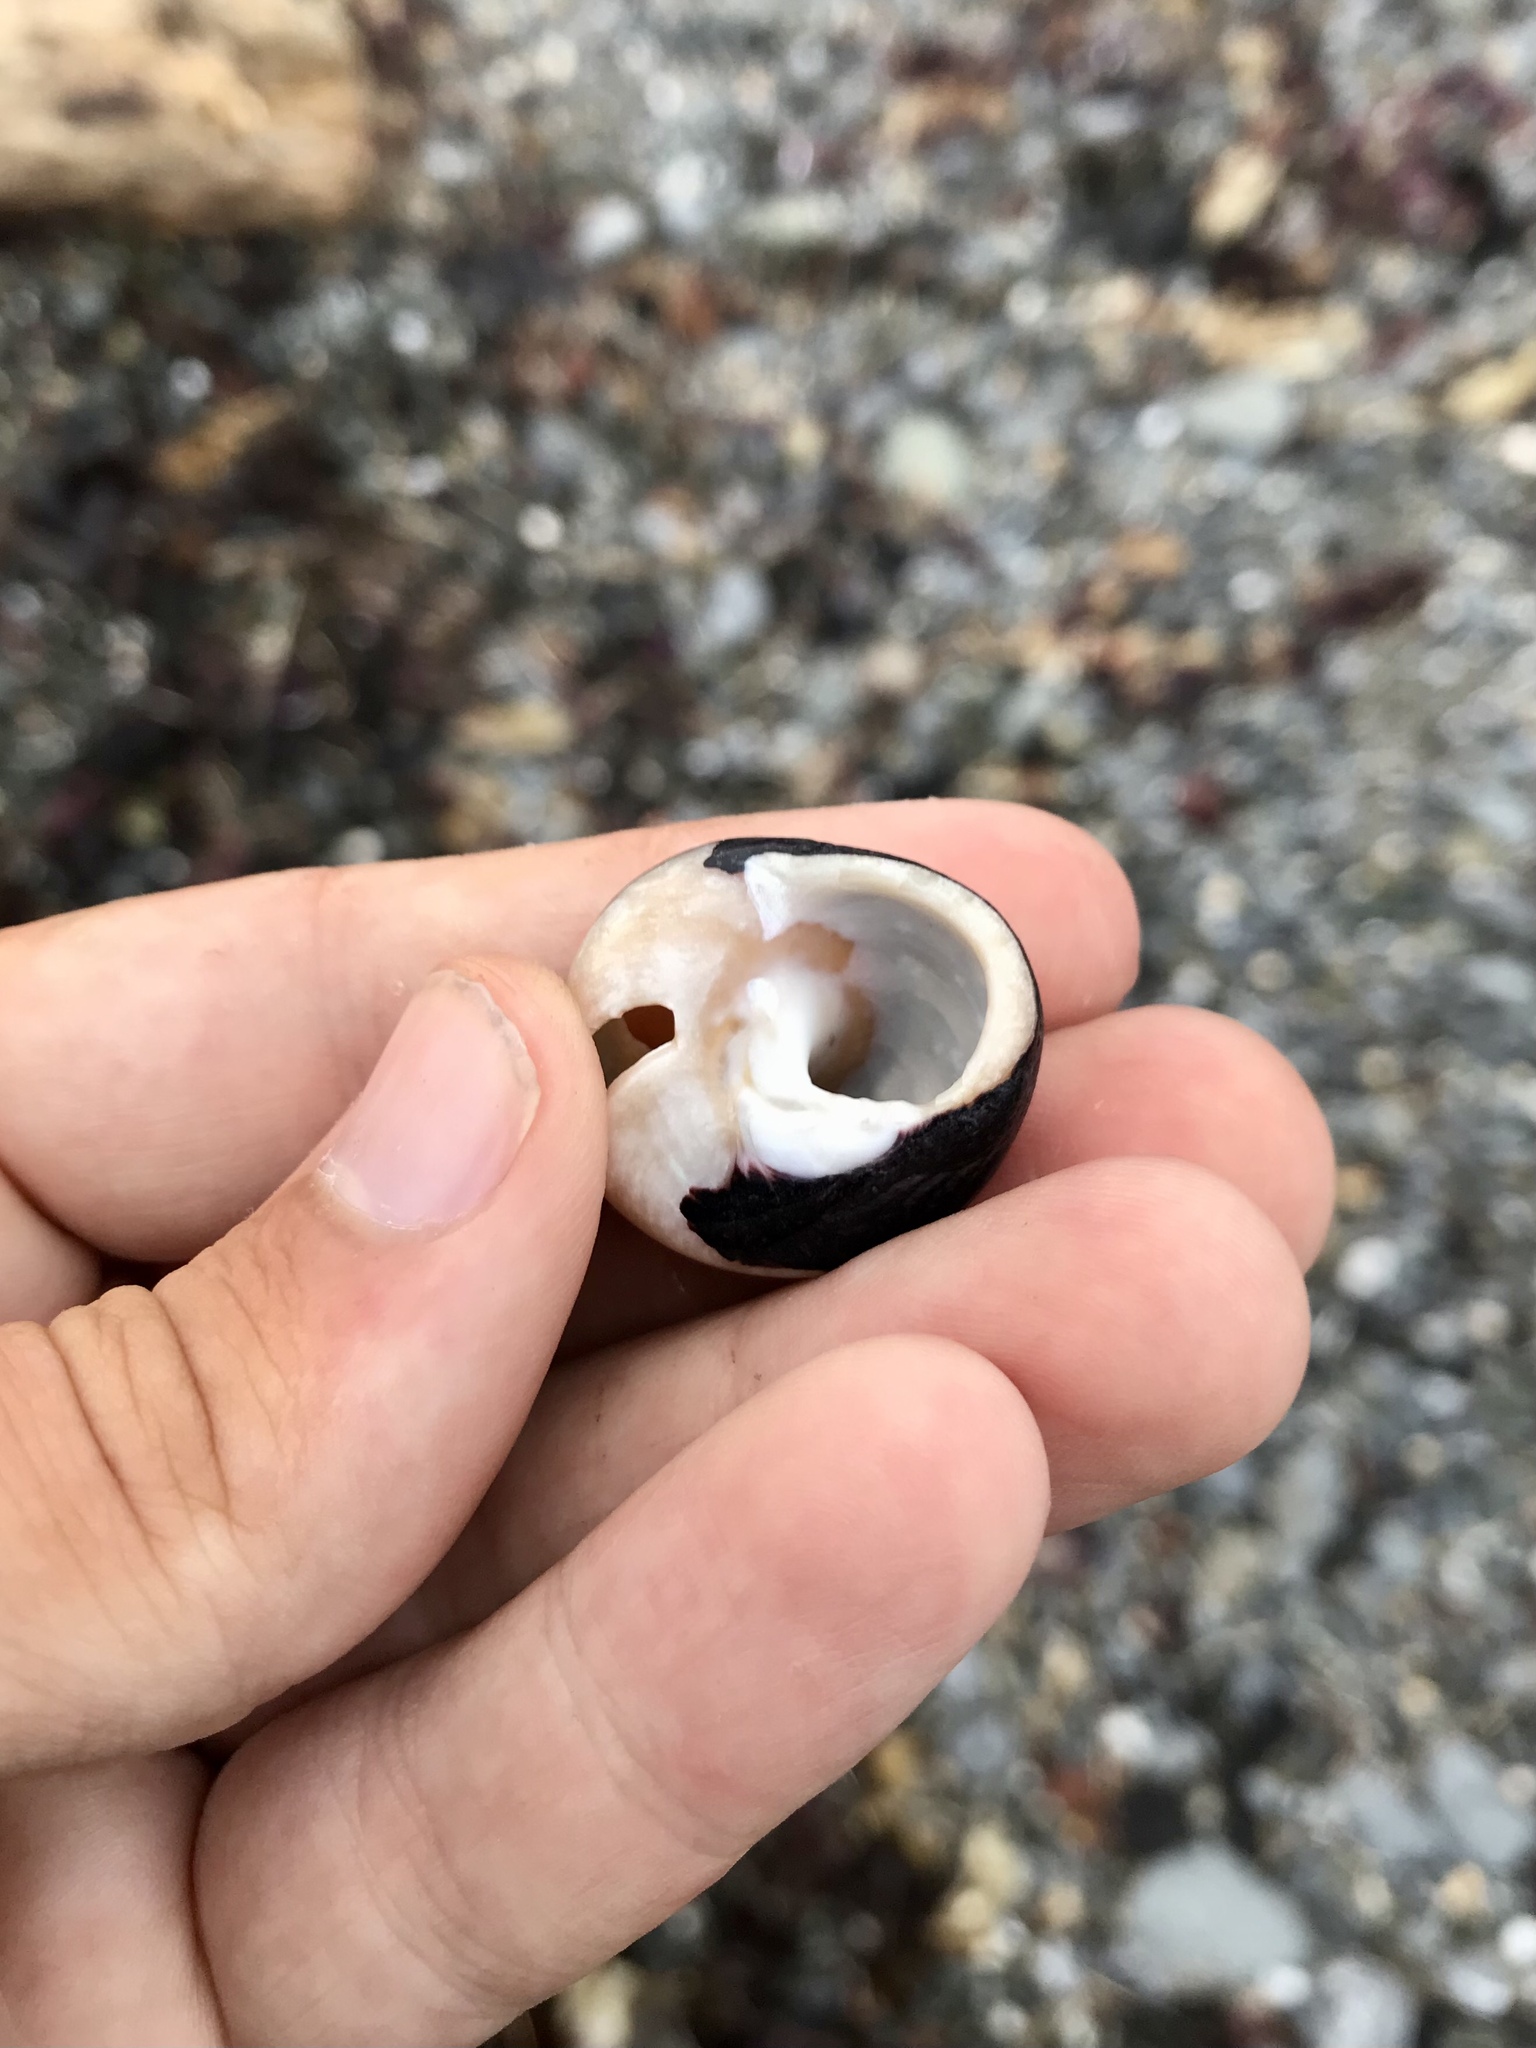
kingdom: Animalia
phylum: Mollusca
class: Gastropoda
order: Trochida
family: Tegulidae
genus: Tegula
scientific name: Tegula funebralis
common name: Black tegula
